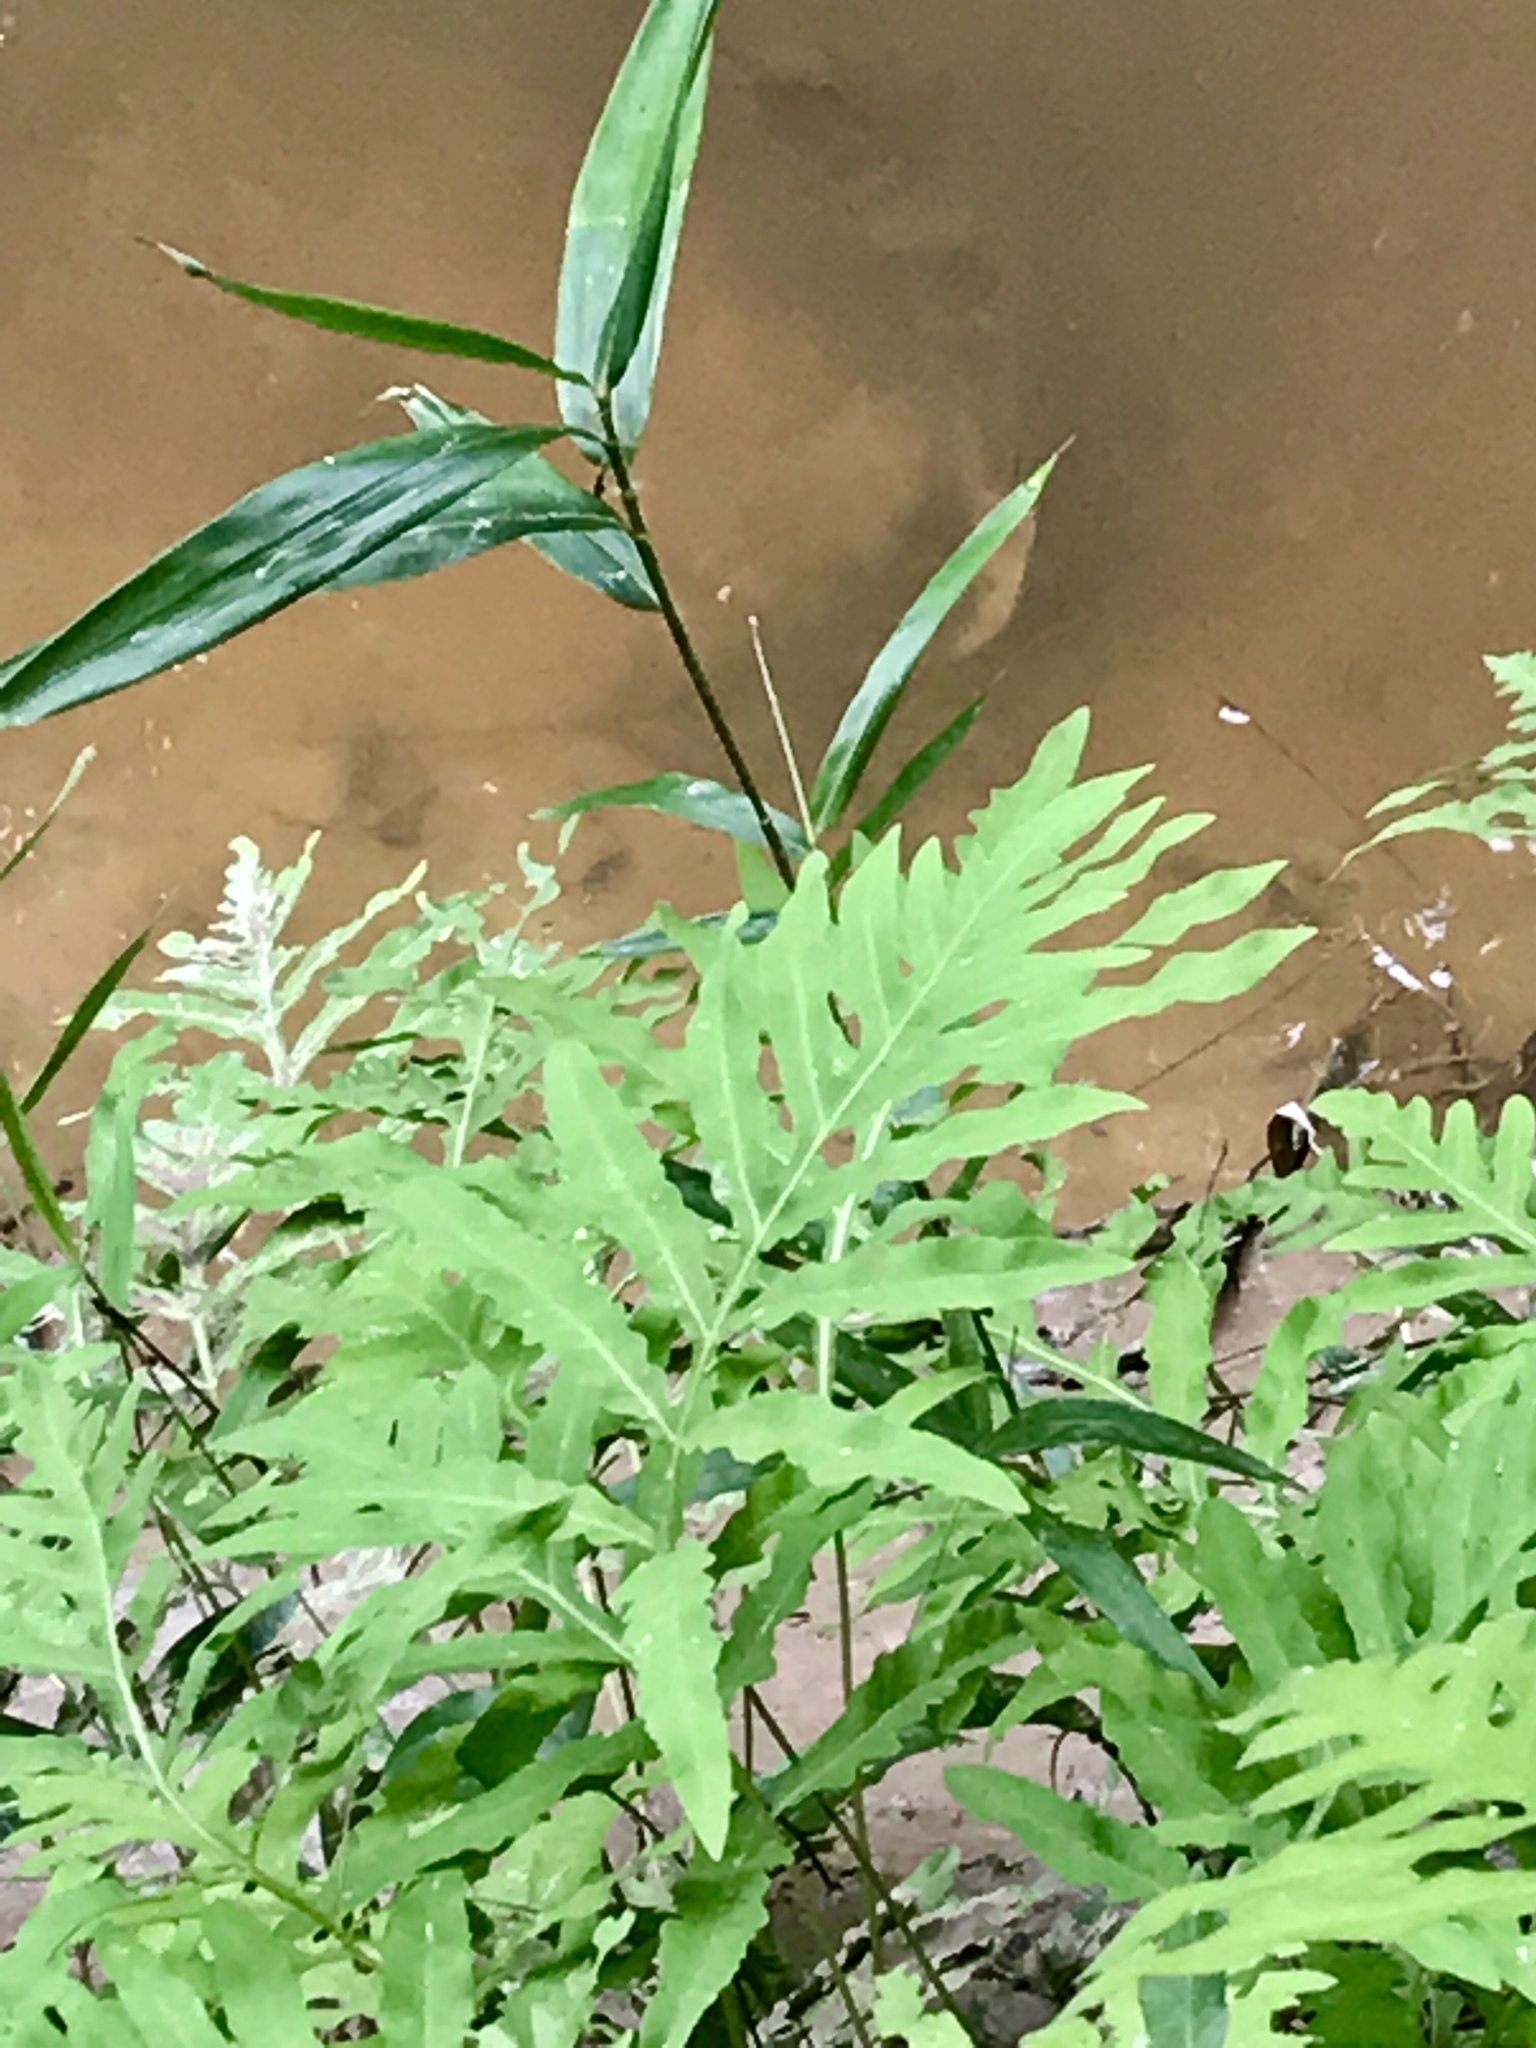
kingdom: Plantae
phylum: Tracheophyta
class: Polypodiopsida
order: Polypodiales
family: Onocleaceae
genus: Onoclea
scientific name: Onoclea sensibilis
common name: Sensitive fern
